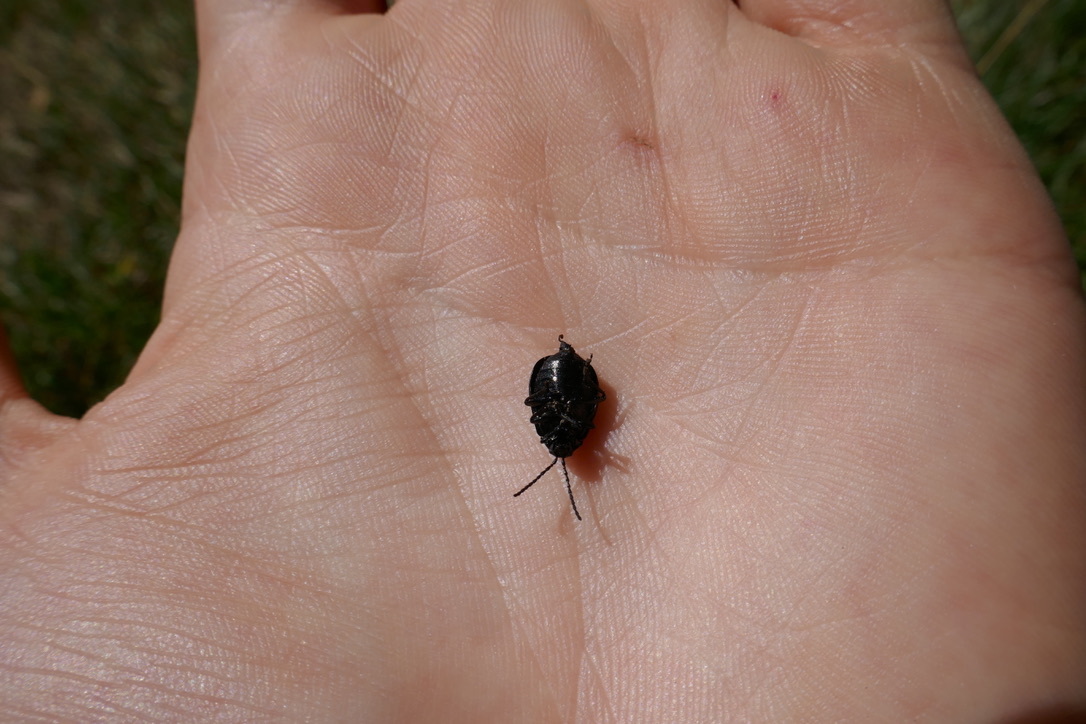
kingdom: Animalia
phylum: Arthropoda
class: Insecta
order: Coleoptera
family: Chrysomelidae
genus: Galeruca
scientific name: Galeruca tanaceti
